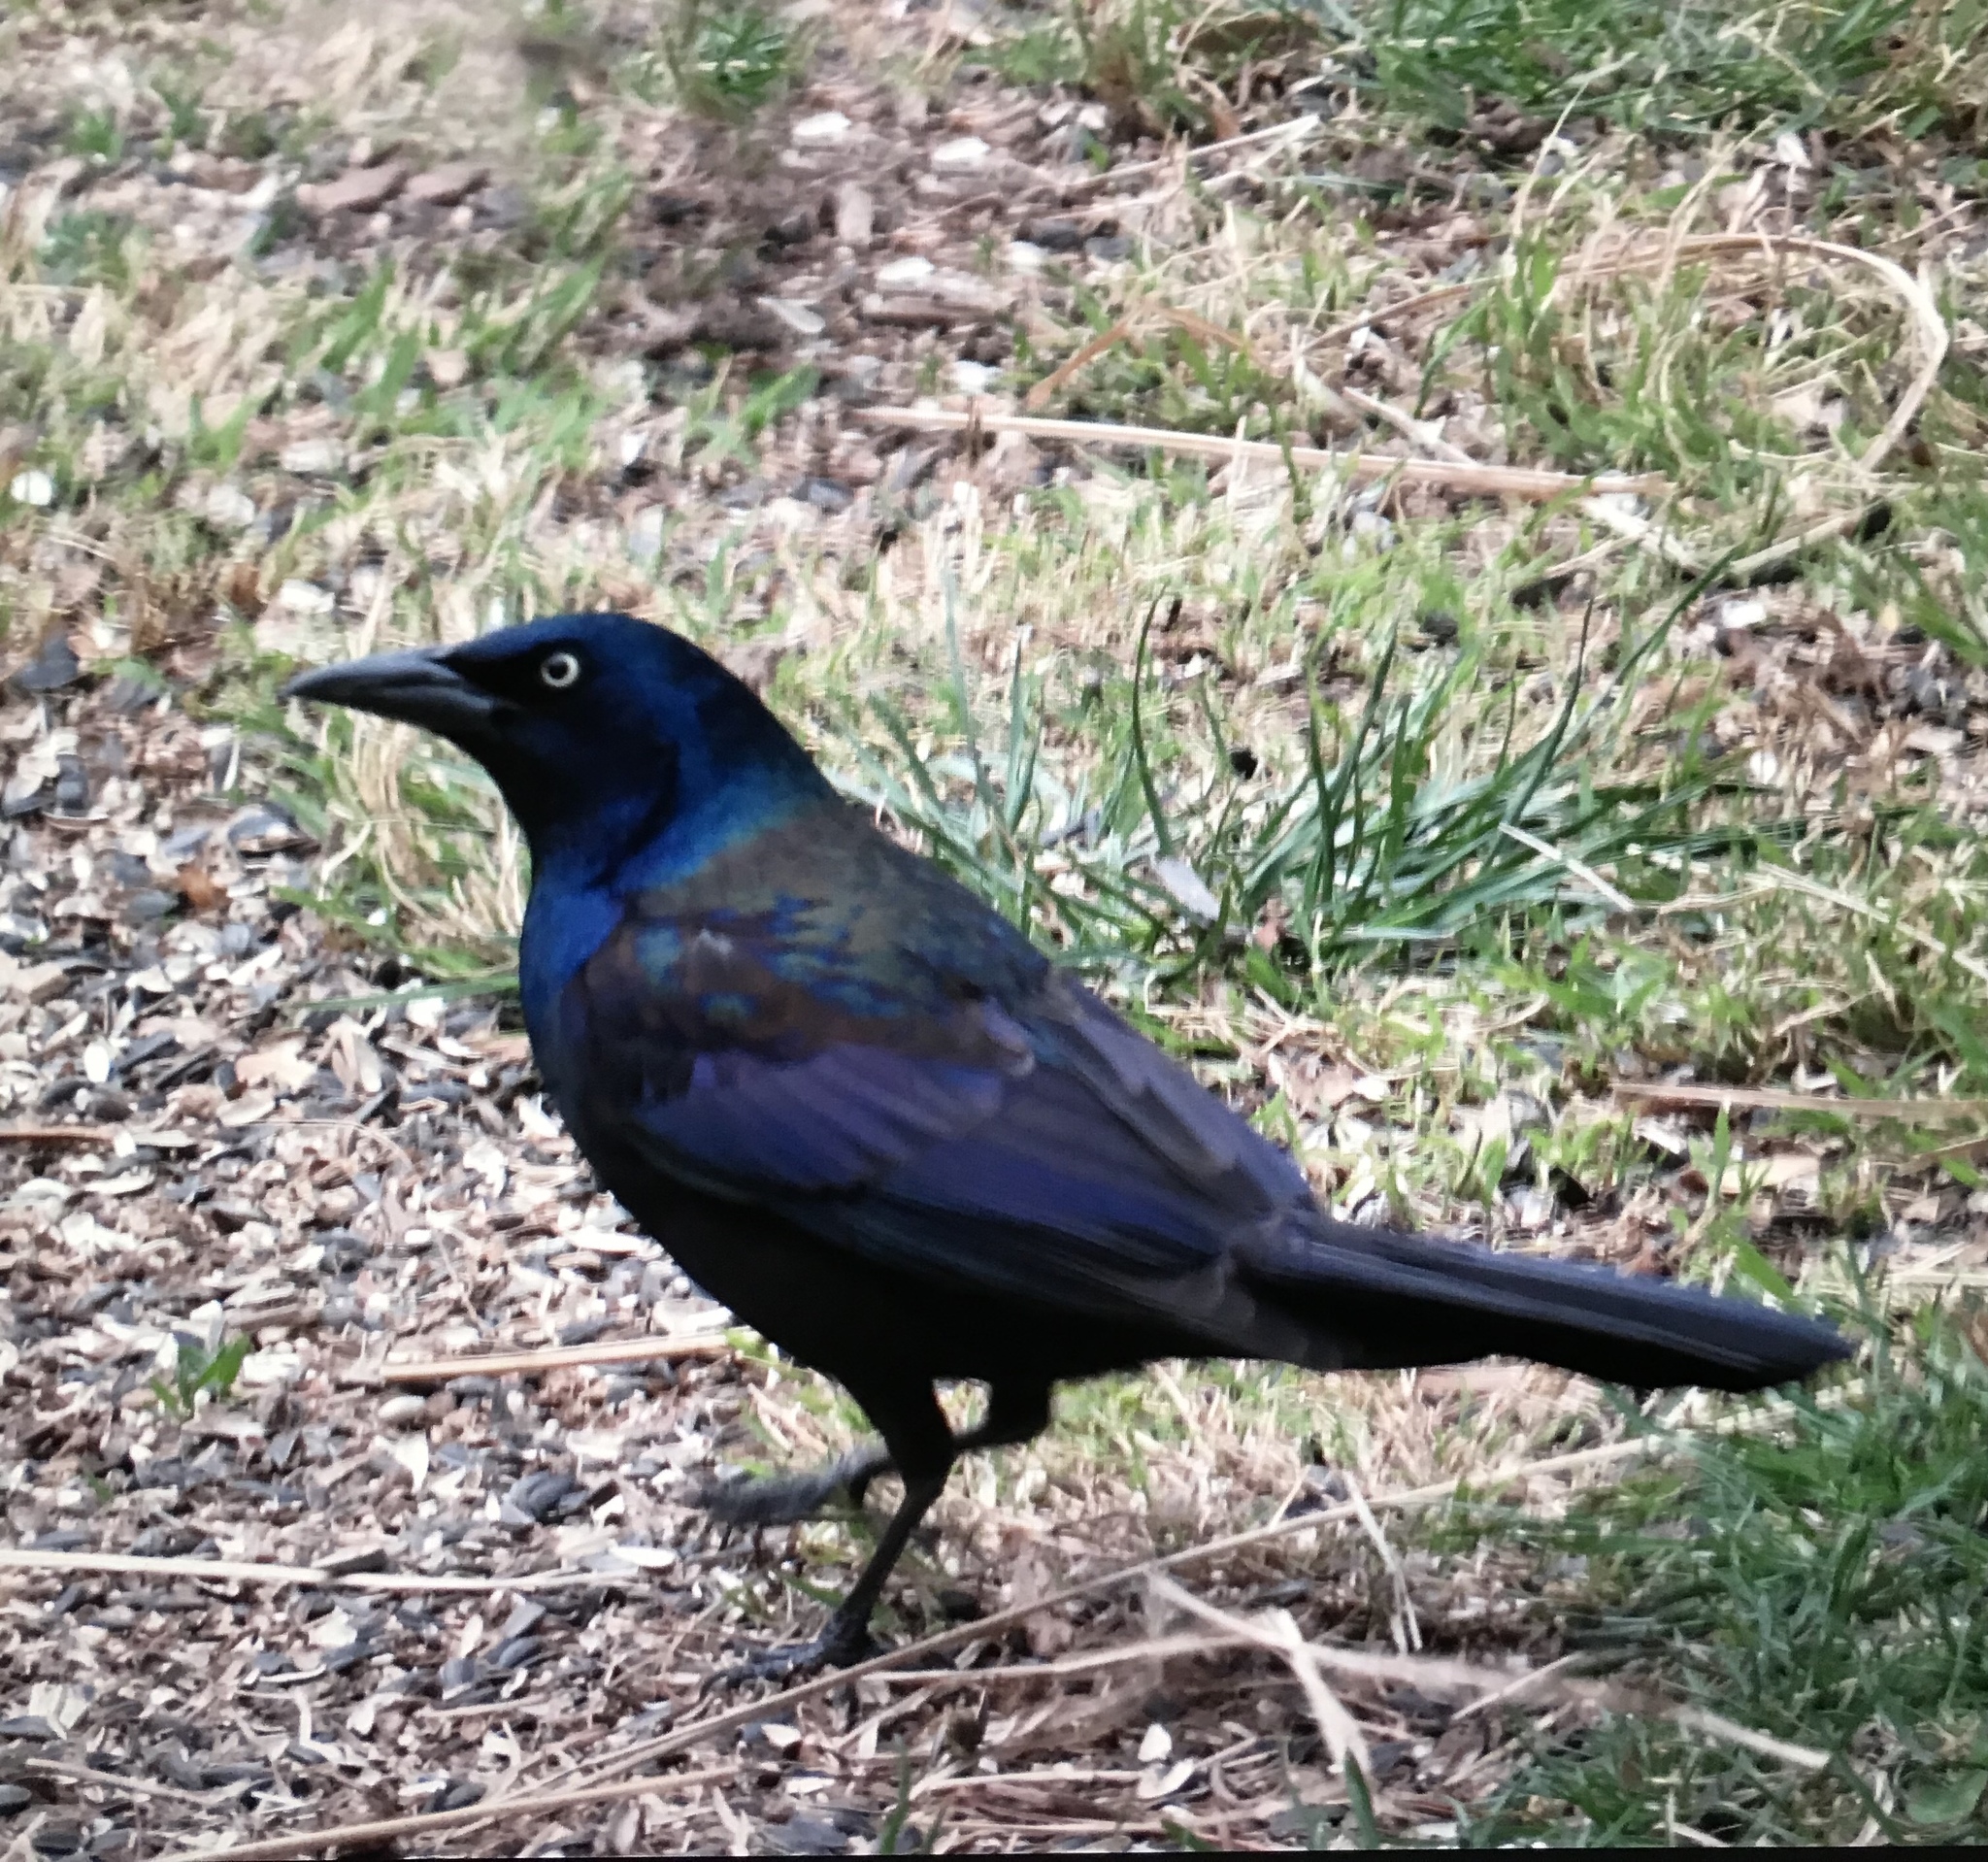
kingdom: Animalia
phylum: Chordata
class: Aves
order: Passeriformes
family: Icteridae
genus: Quiscalus
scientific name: Quiscalus quiscula
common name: Common grackle
